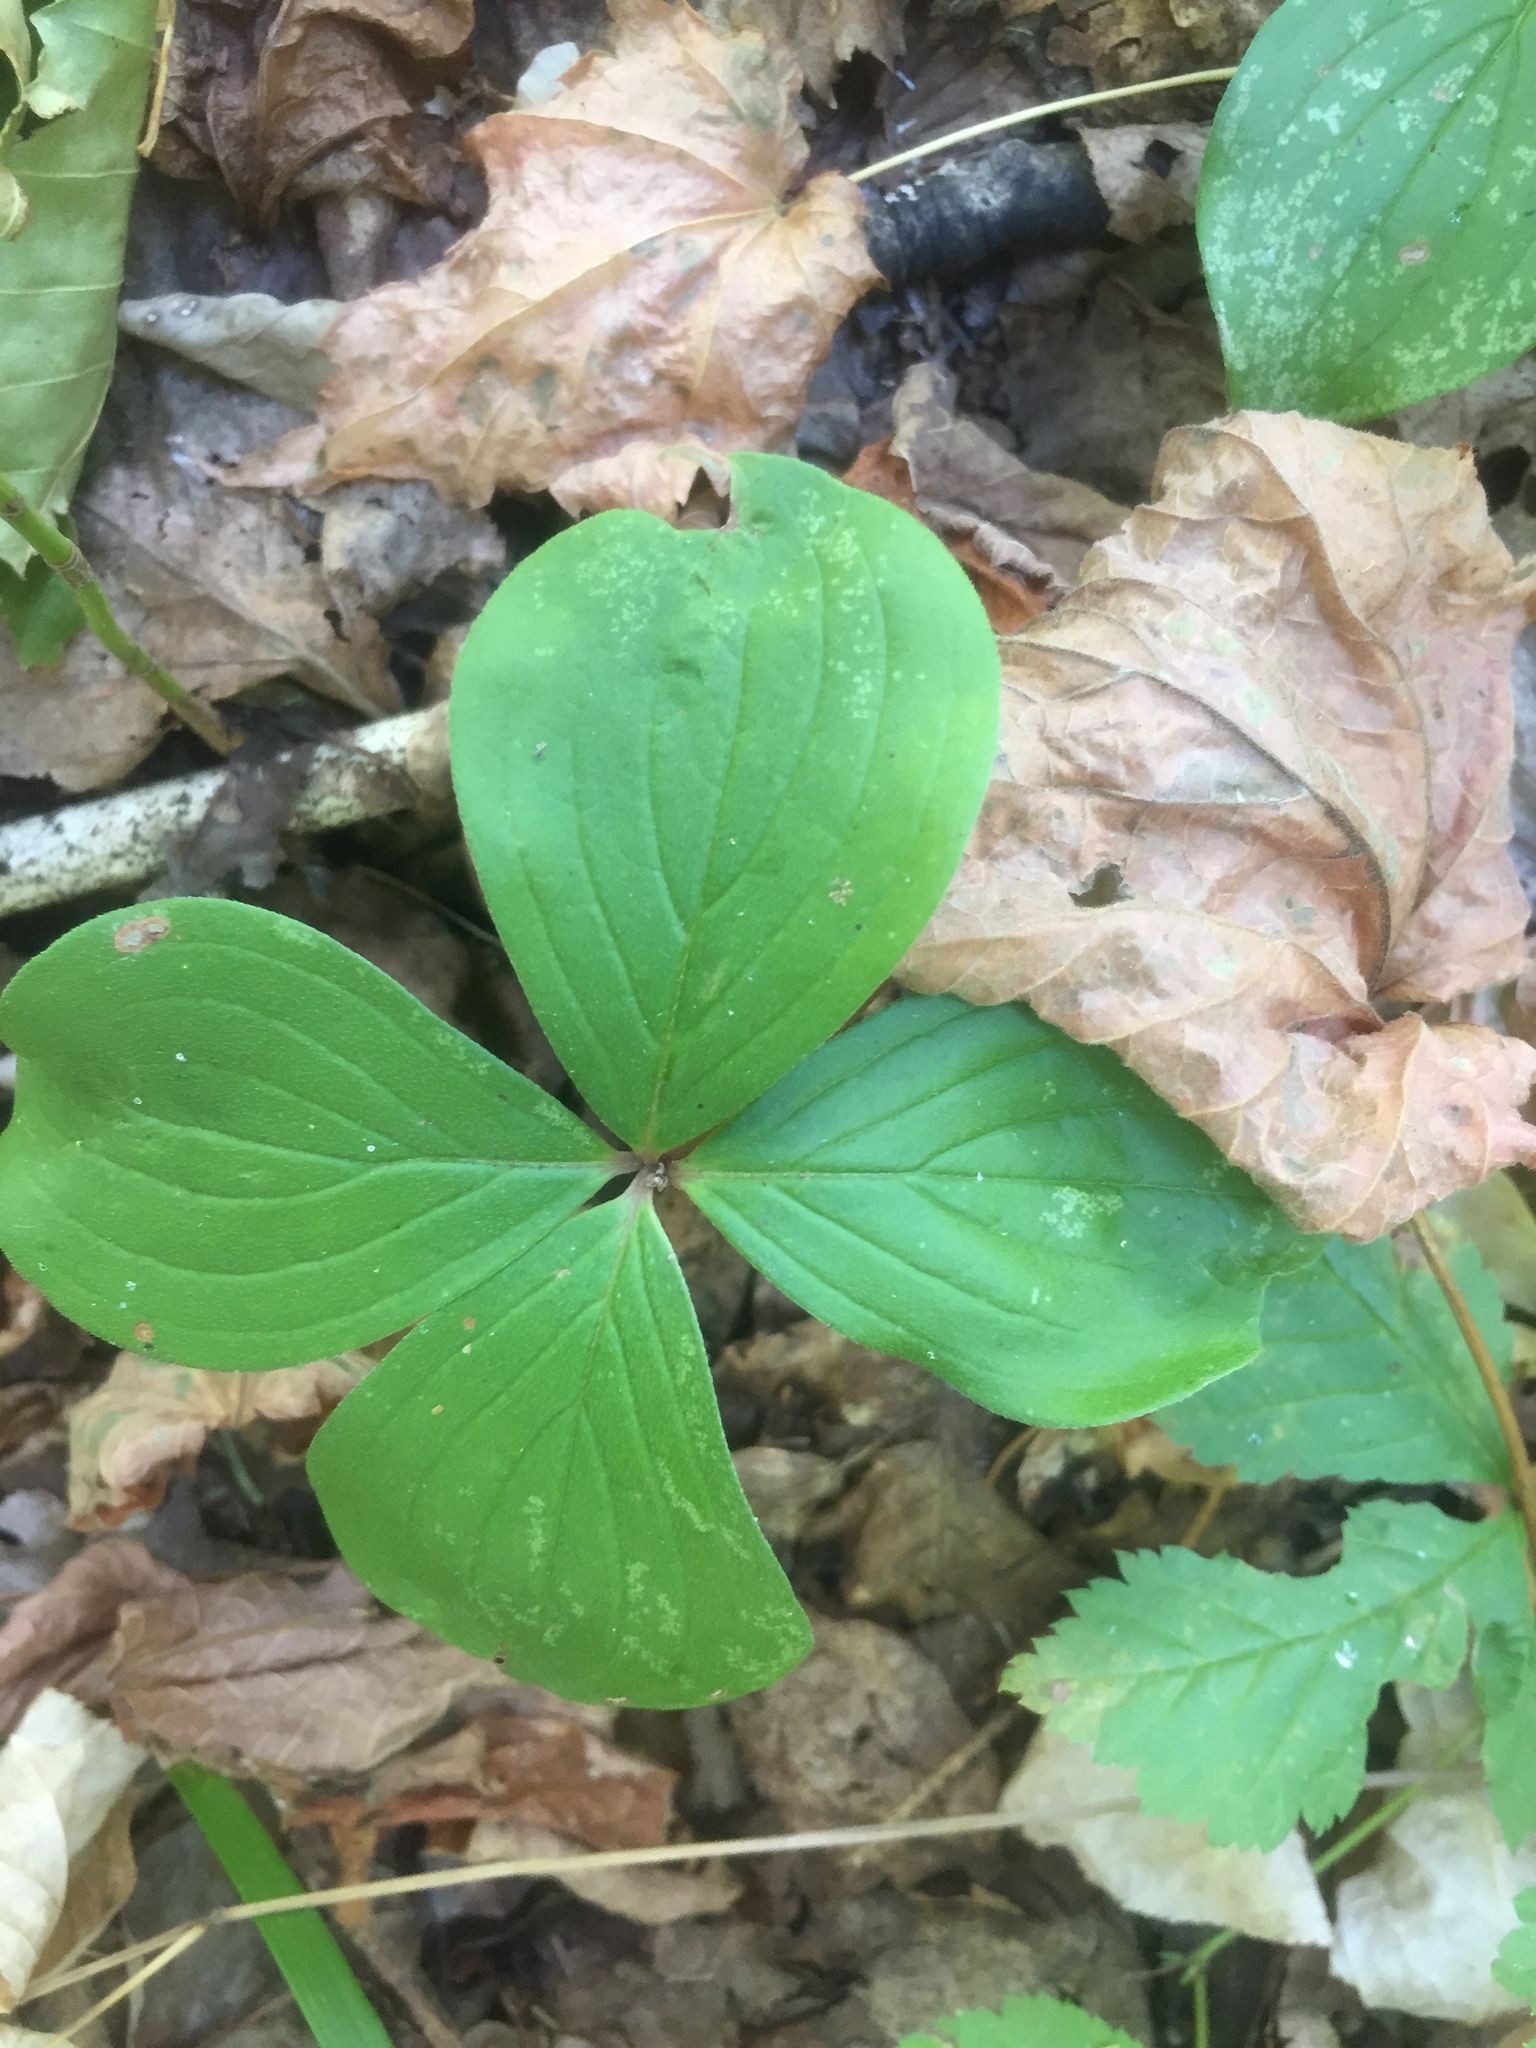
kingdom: Plantae
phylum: Tracheophyta
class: Magnoliopsida
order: Cornales
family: Cornaceae
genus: Cornus
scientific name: Cornus canadensis
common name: Creeping dogwood
